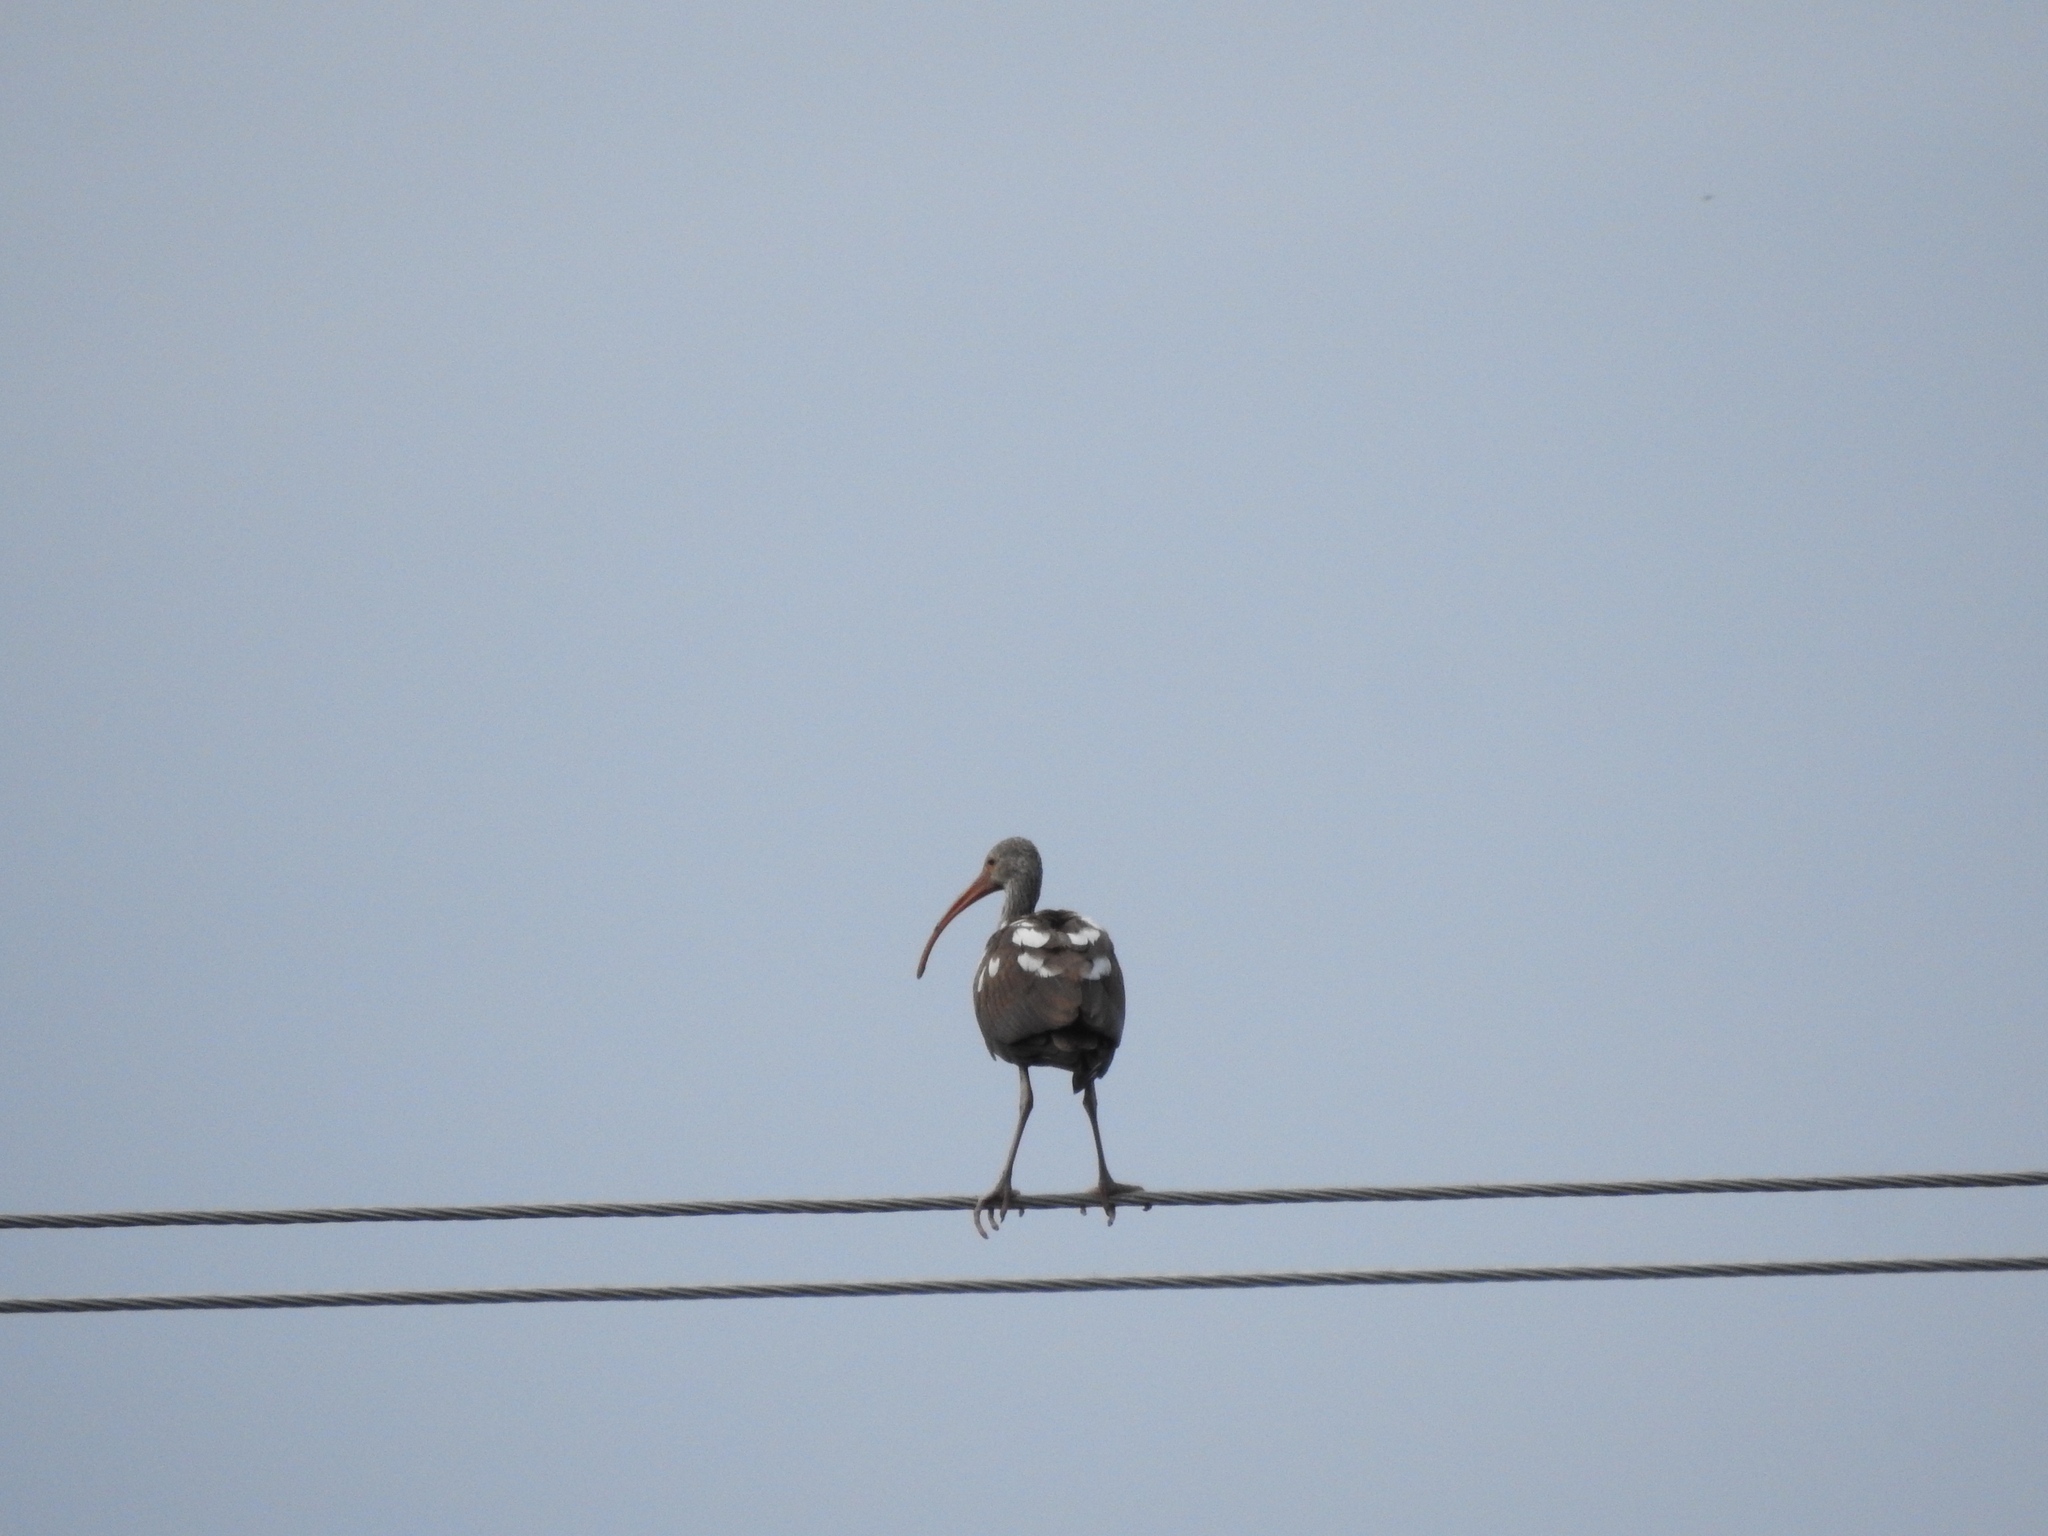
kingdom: Animalia
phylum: Chordata
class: Aves
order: Pelecaniformes
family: Threskiornithidae
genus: Eudocimus
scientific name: Eudocimus albus
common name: White ibis
